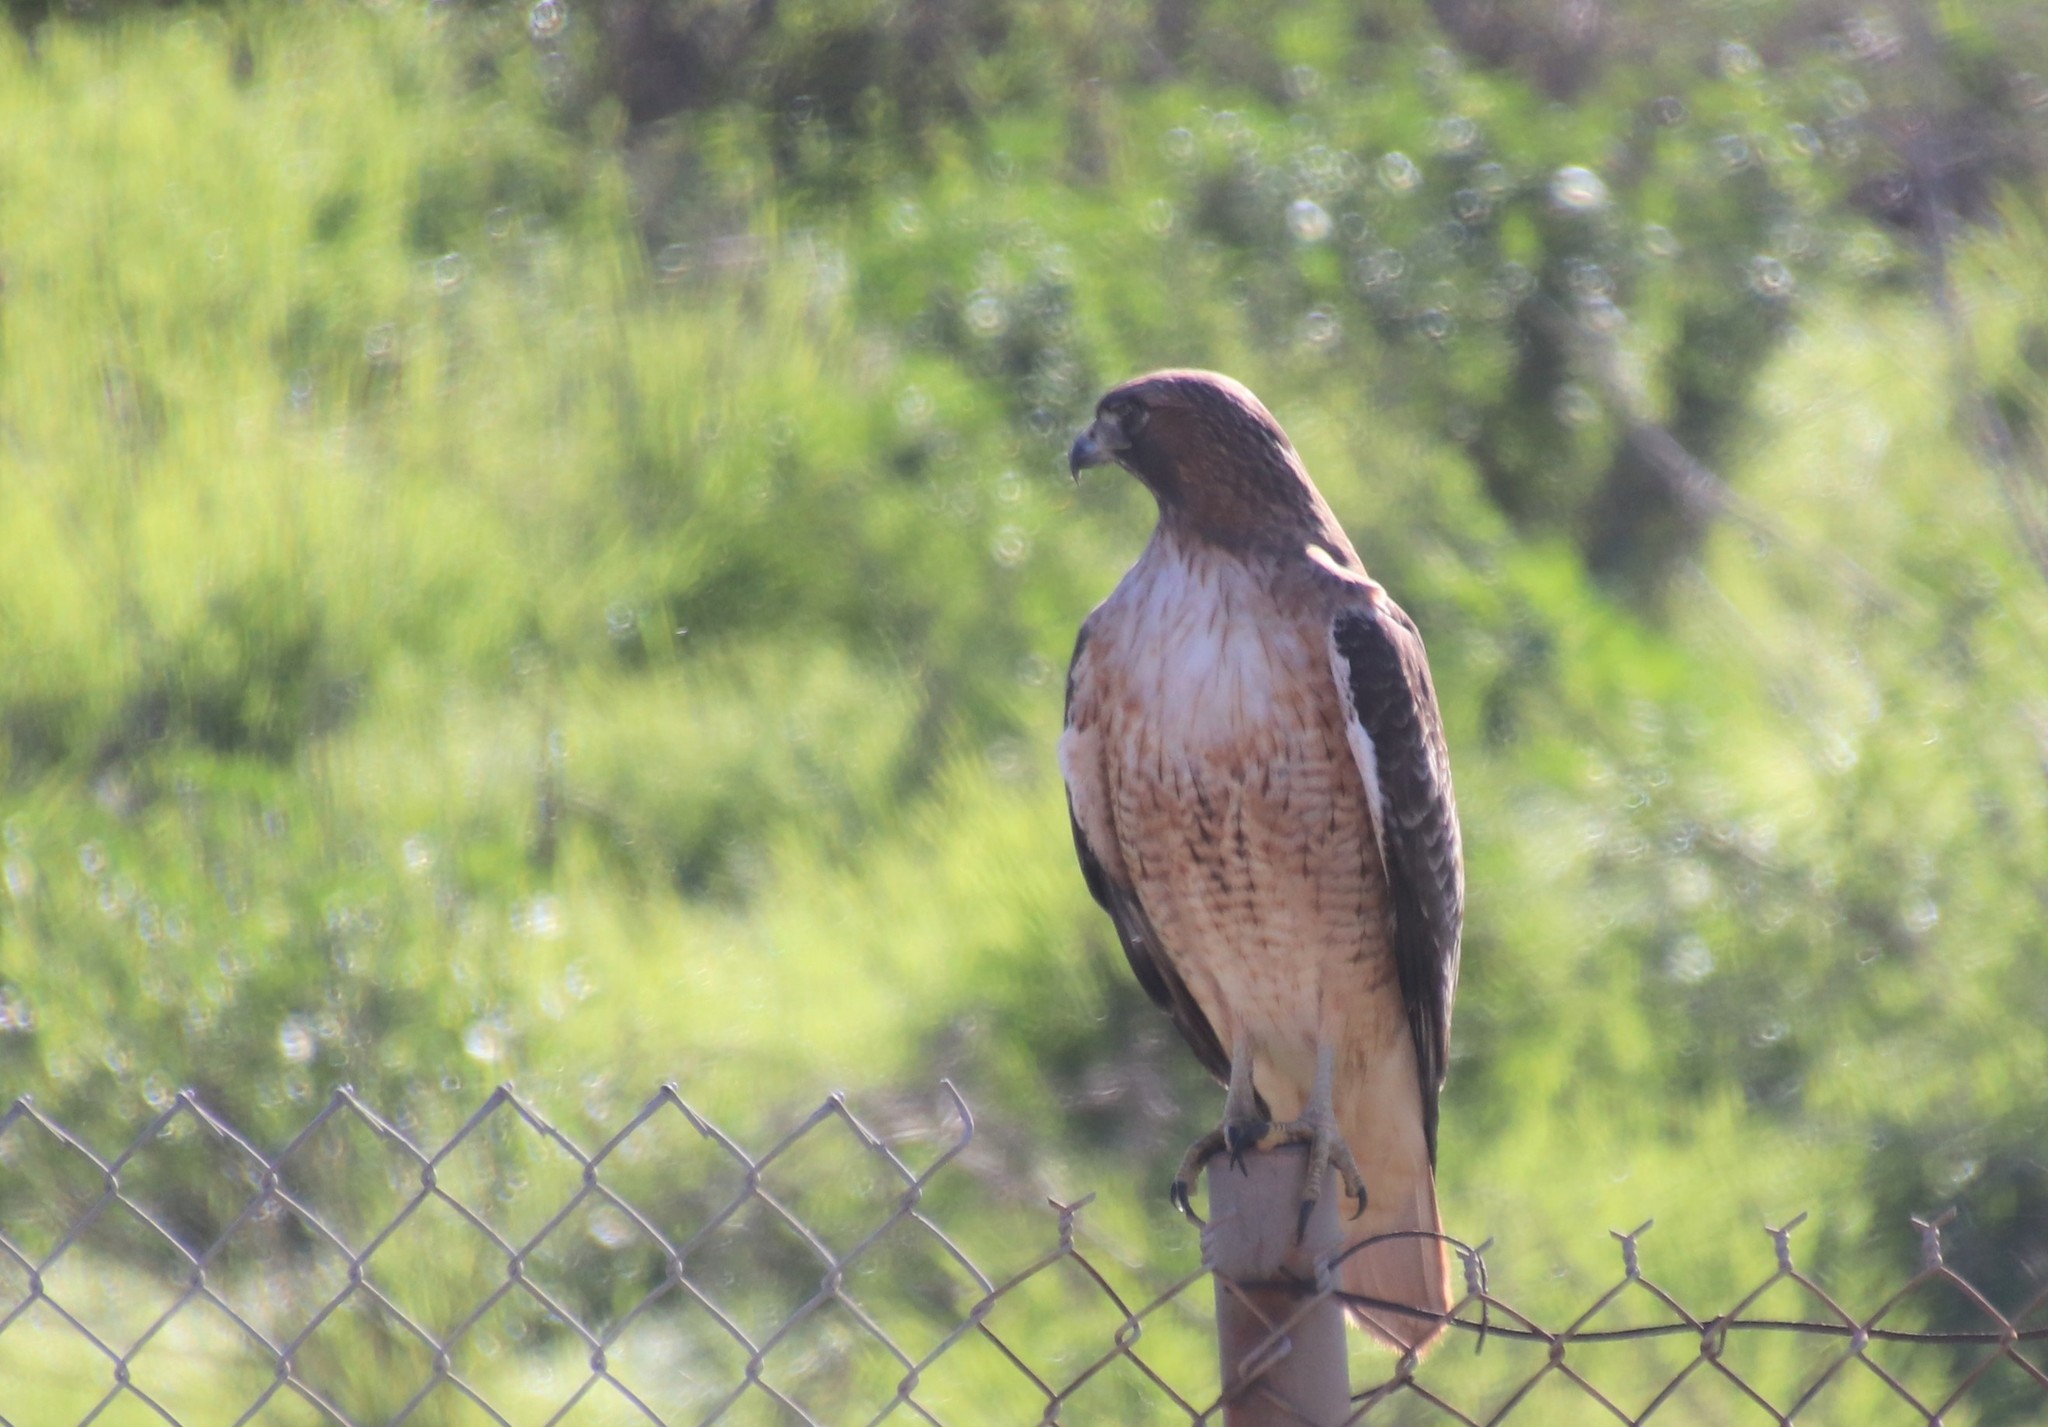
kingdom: Animalia
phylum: Chordata
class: Aves
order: Accipitriformes
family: Accipitridae
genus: Buteo
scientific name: Buteo jamaicensis
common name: Red-tailed hawk
